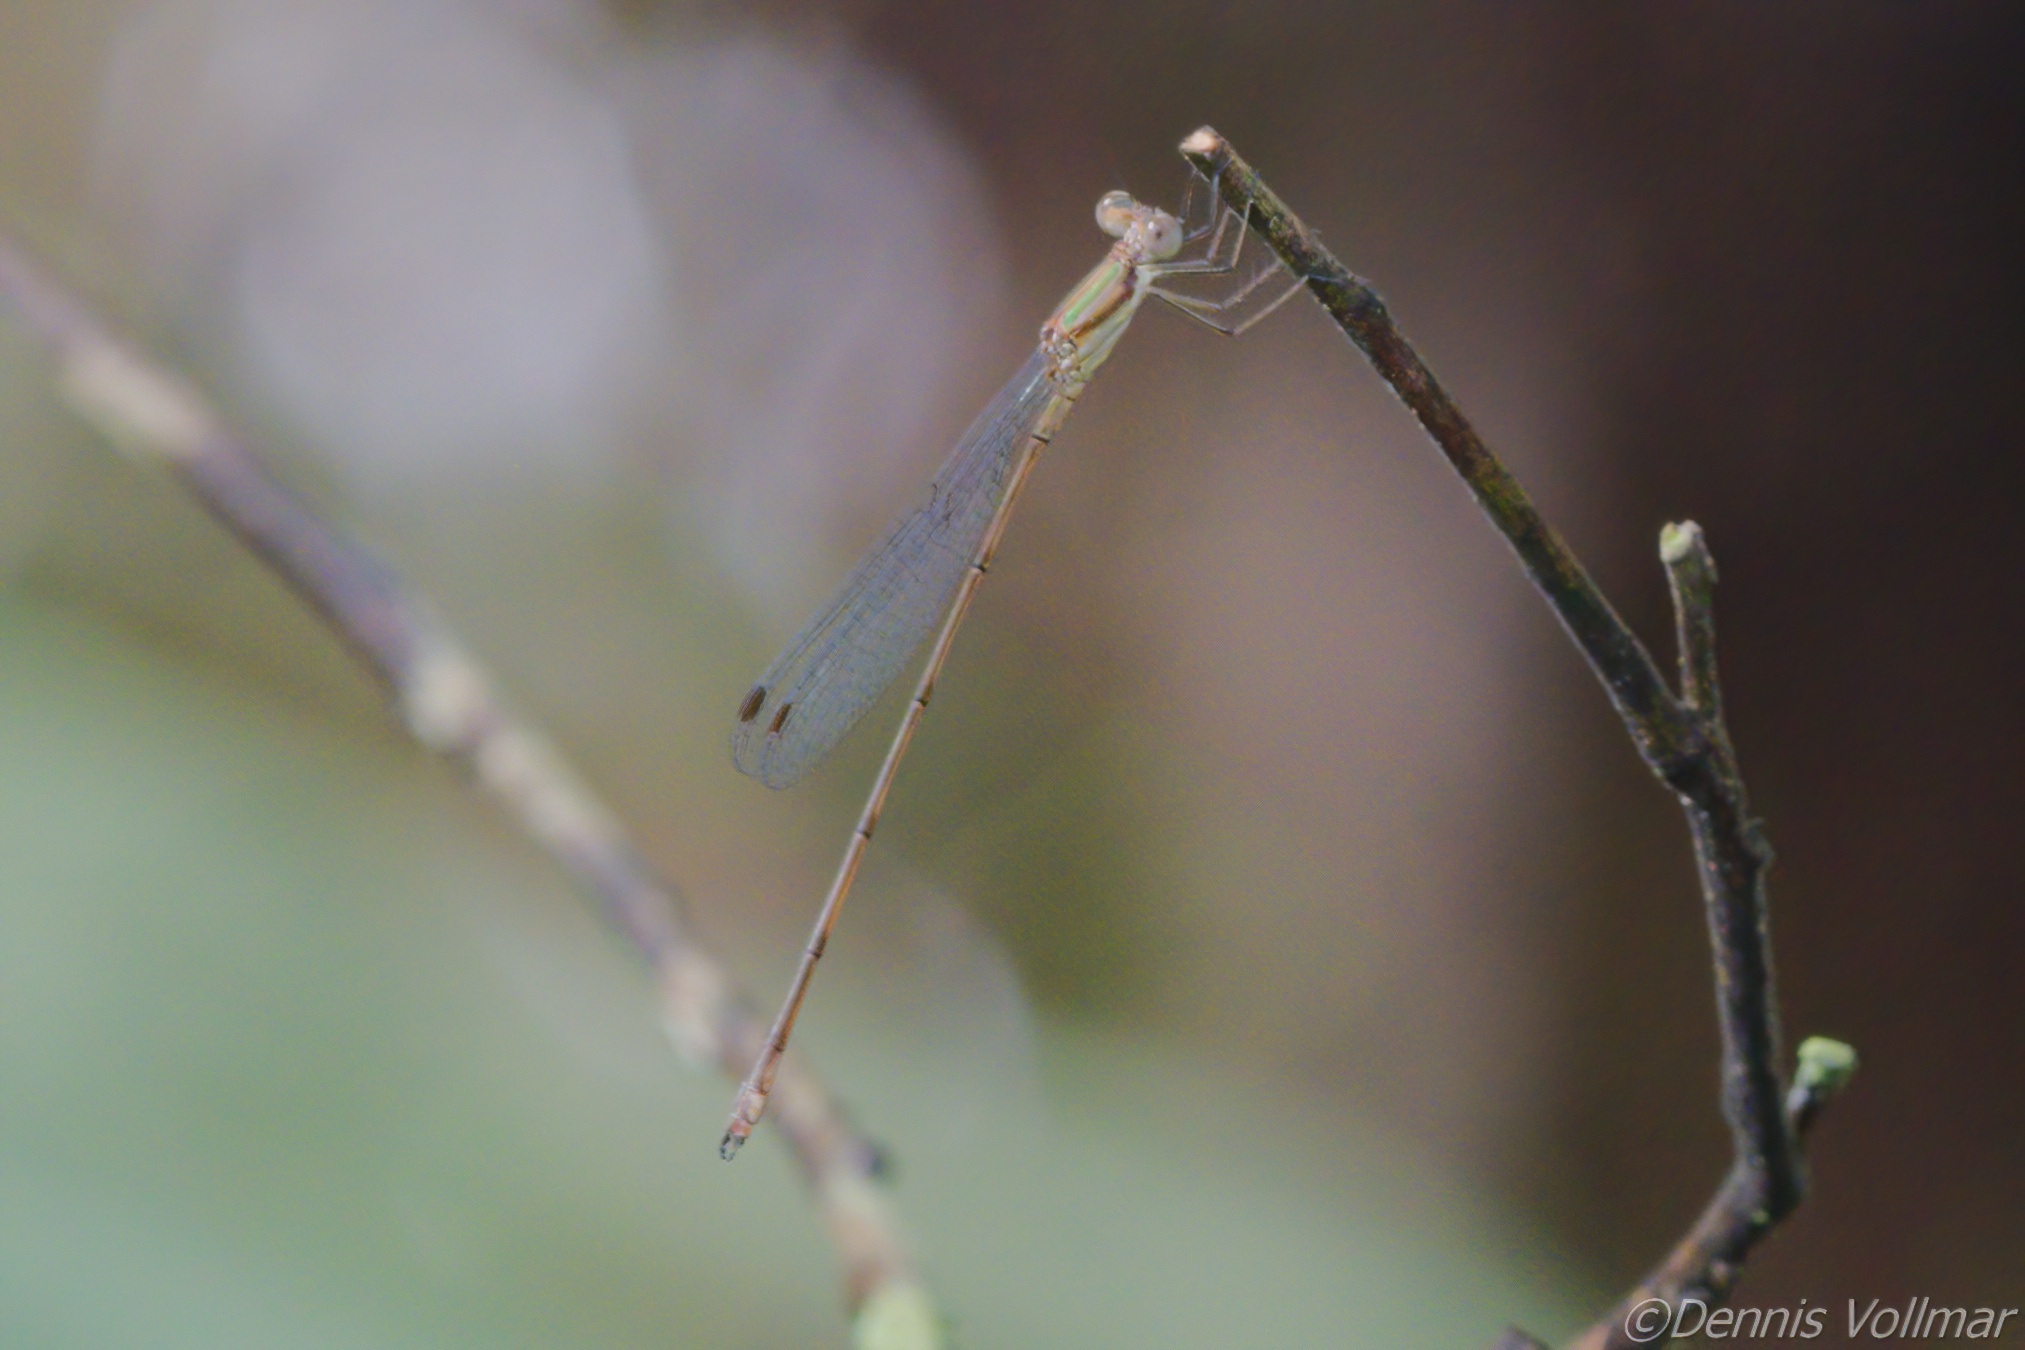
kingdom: Animalia
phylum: Arthropoda
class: Insecta
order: Odonata
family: Lestidae
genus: Lestes
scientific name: Lestes tenuatus
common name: Blue-striped spreadwing
